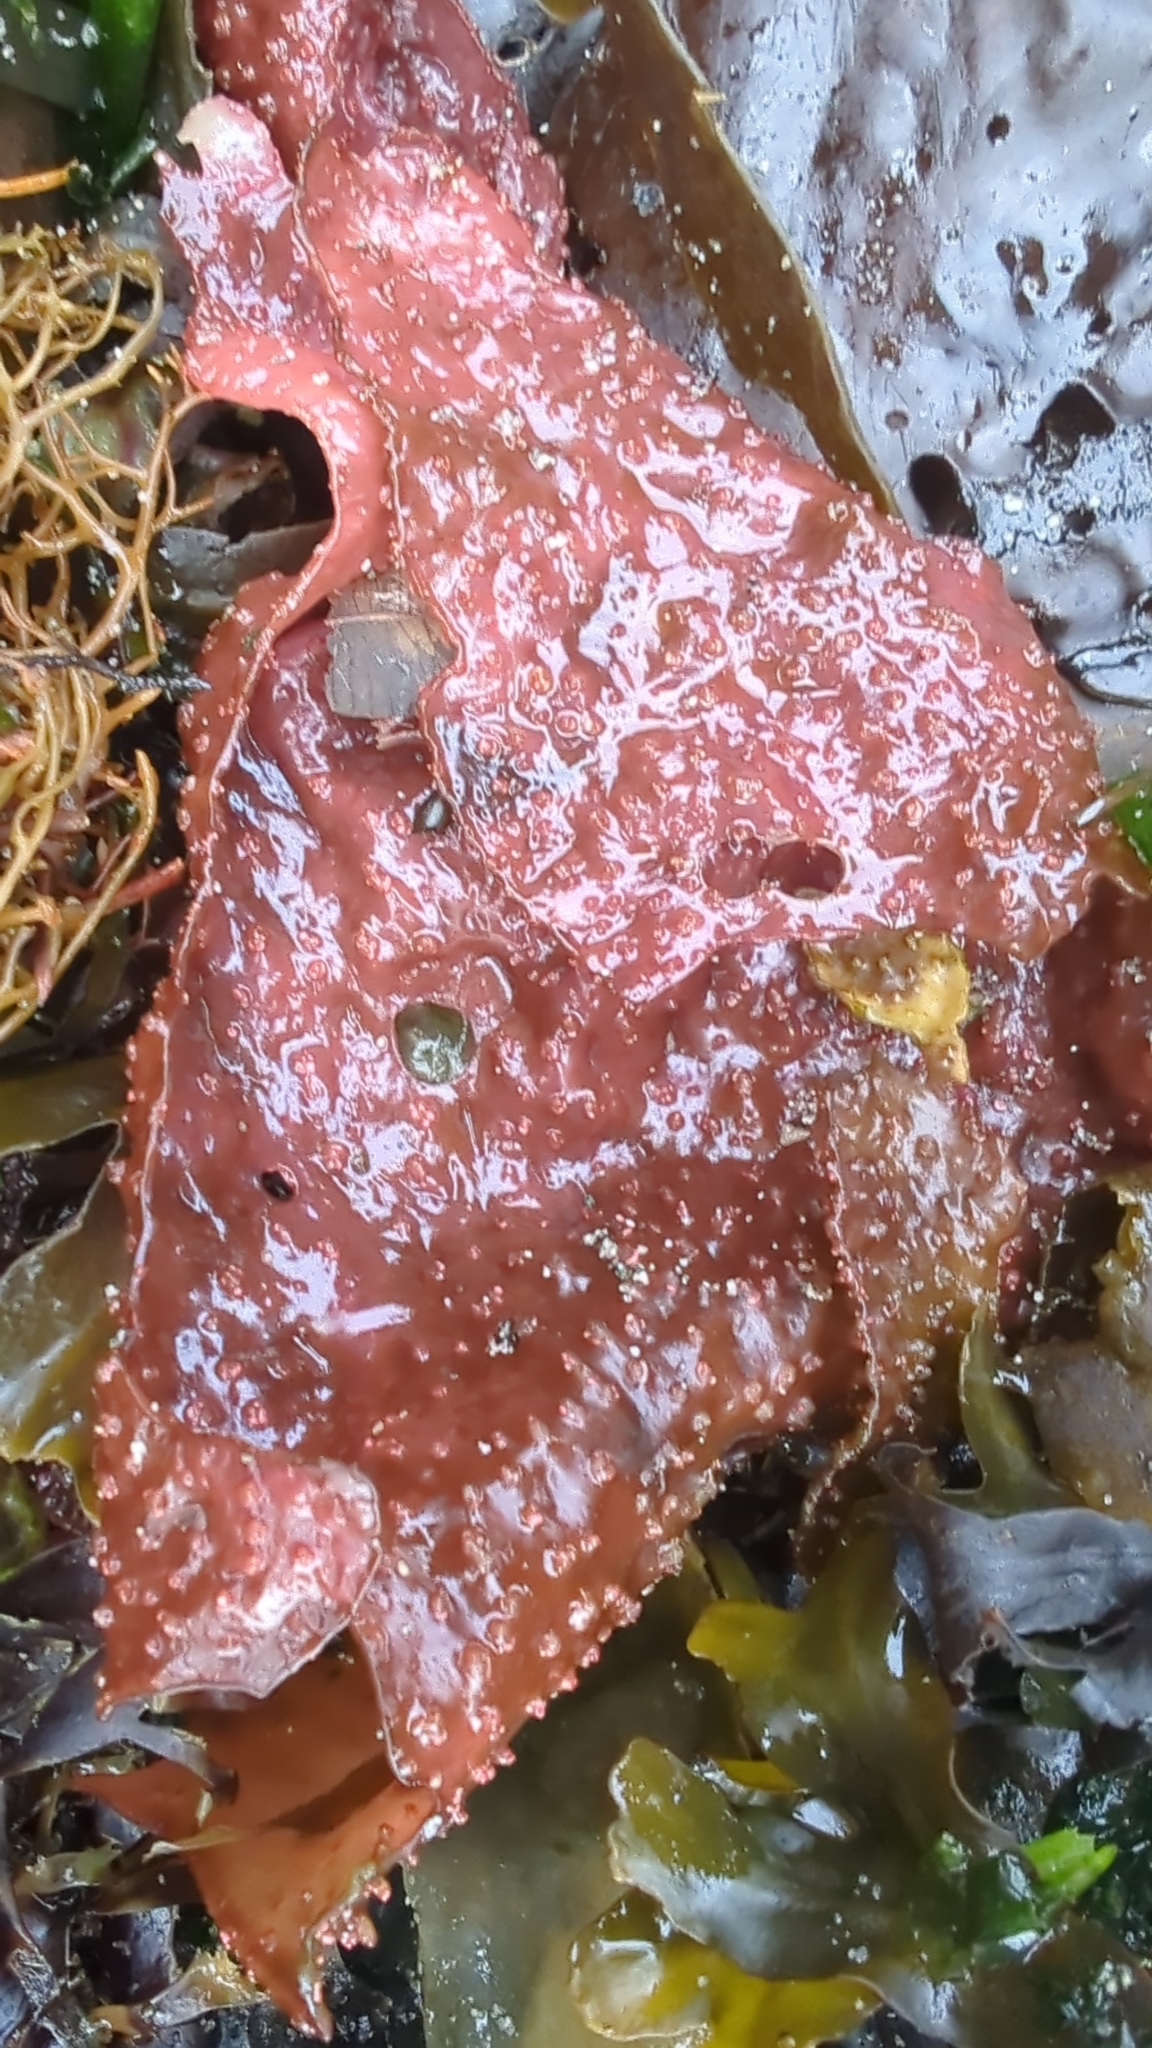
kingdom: Plantae
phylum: Rhodophyta
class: Florideophyceae
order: Gigartinales
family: Gigartinaceae
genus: Chondracanthus
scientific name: Chondracanthus exasperatus
